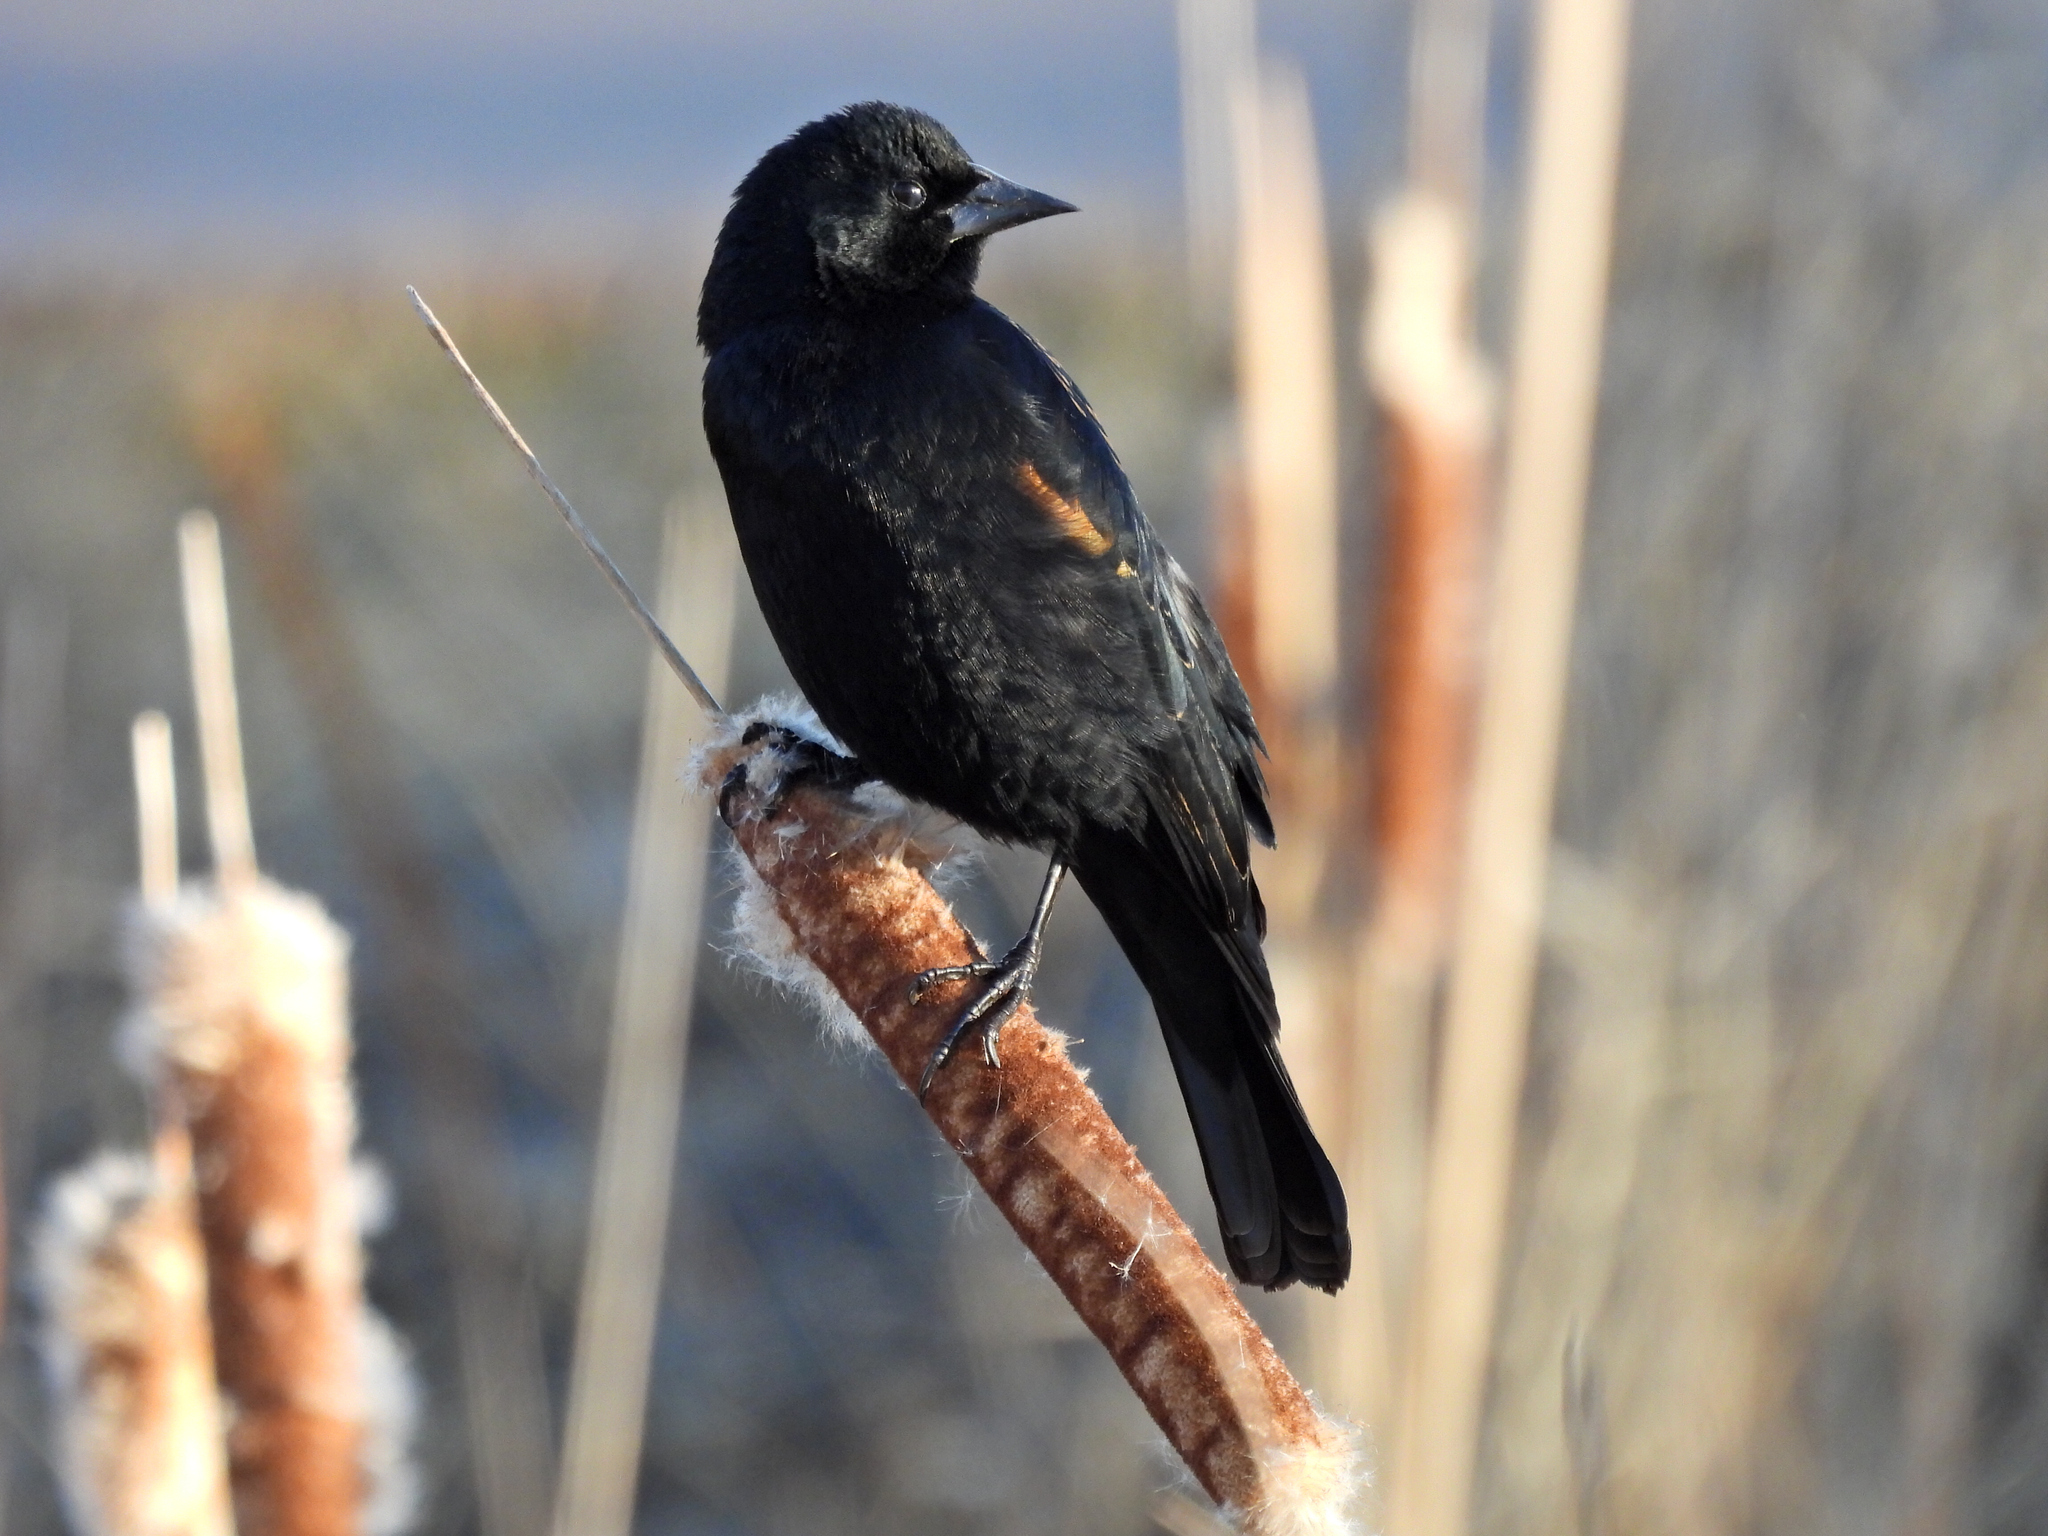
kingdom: Animalia
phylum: Chordata
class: Aves
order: Passeriformes
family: Icteridae
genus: Agelaius
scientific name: Agelaius phoeniceus
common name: Red-winged blackbird
